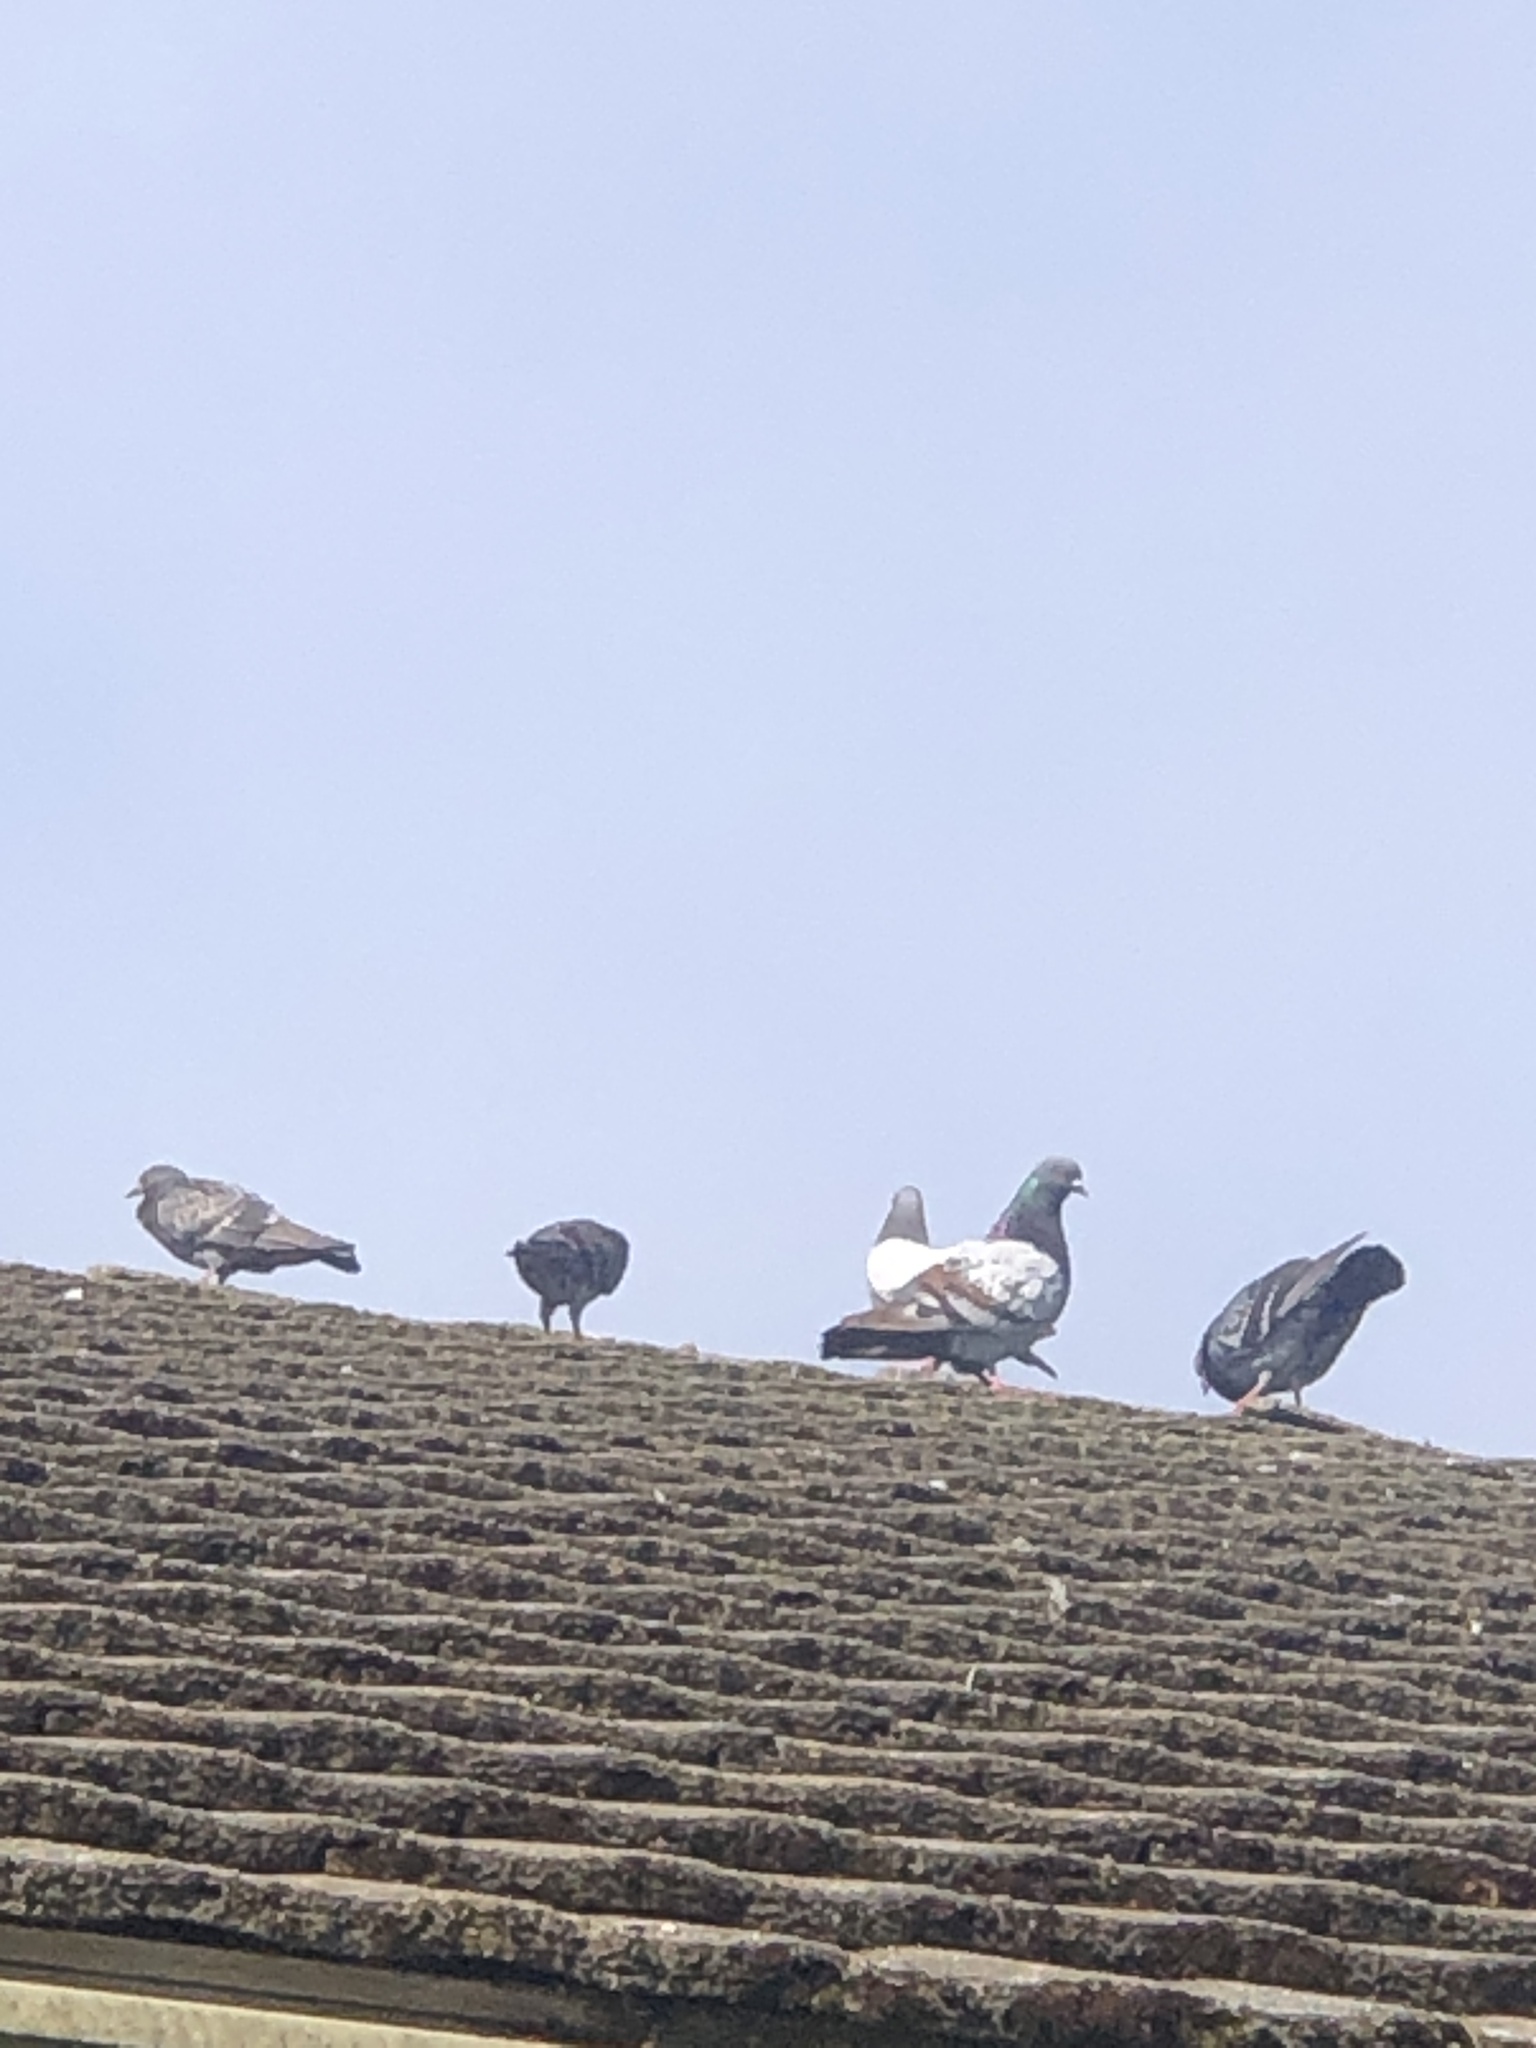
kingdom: Animalia
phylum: Chordata
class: Aves
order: Columbiformes
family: Columbidae
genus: Columba
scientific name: Columba livia
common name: Rock pigeon
